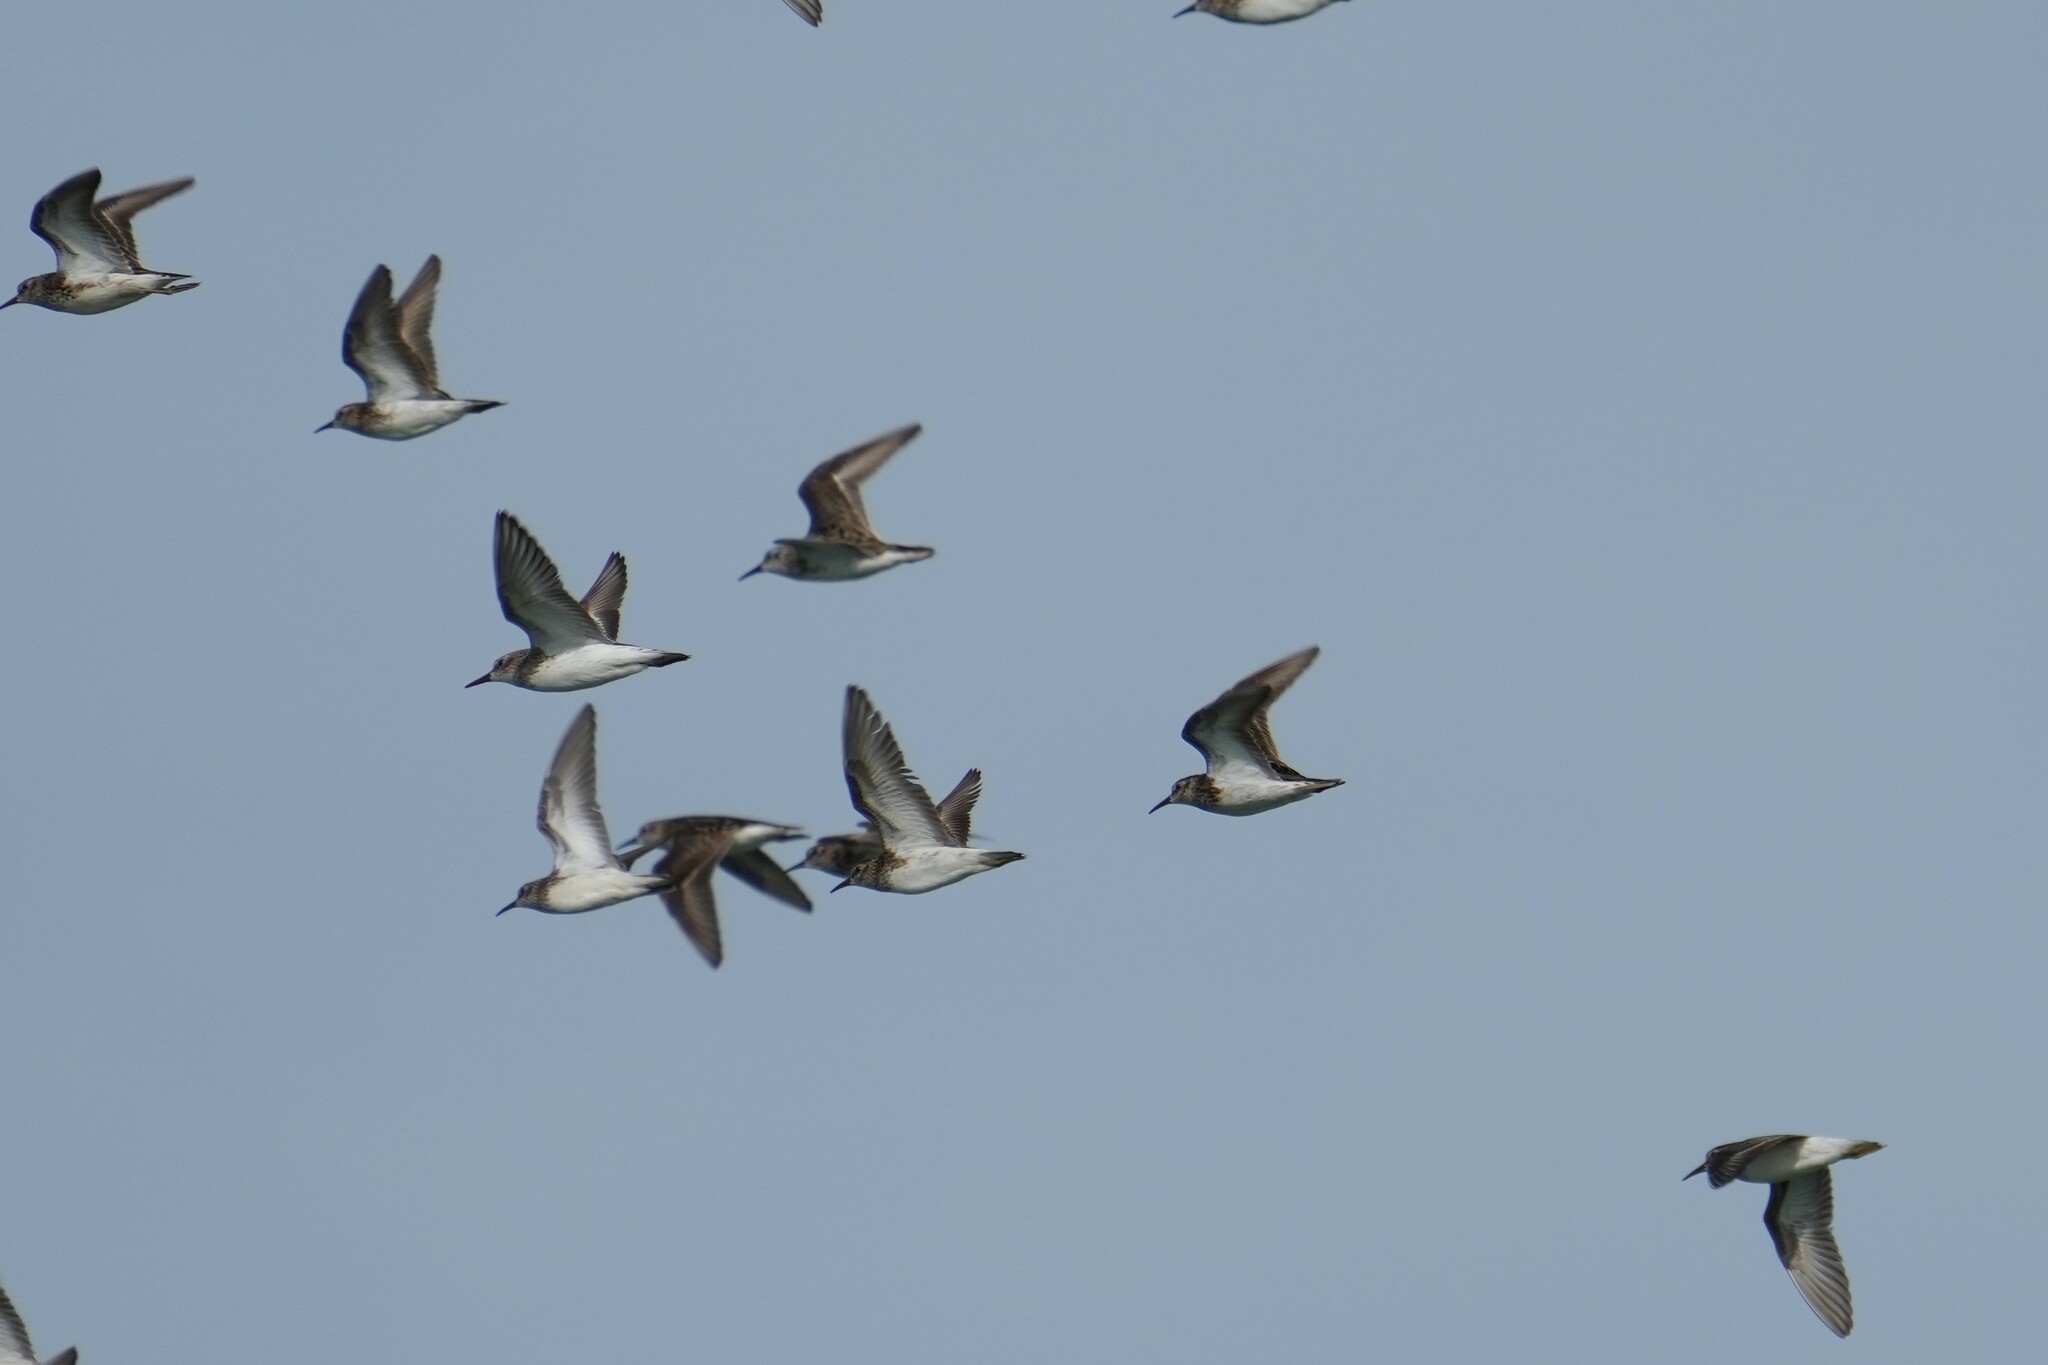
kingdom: Animalia
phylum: Chordata
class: Aves
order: Charadriiformes
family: Scolopacidae
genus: Calidris
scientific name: Calidris minutilla
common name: Least sandpiper
